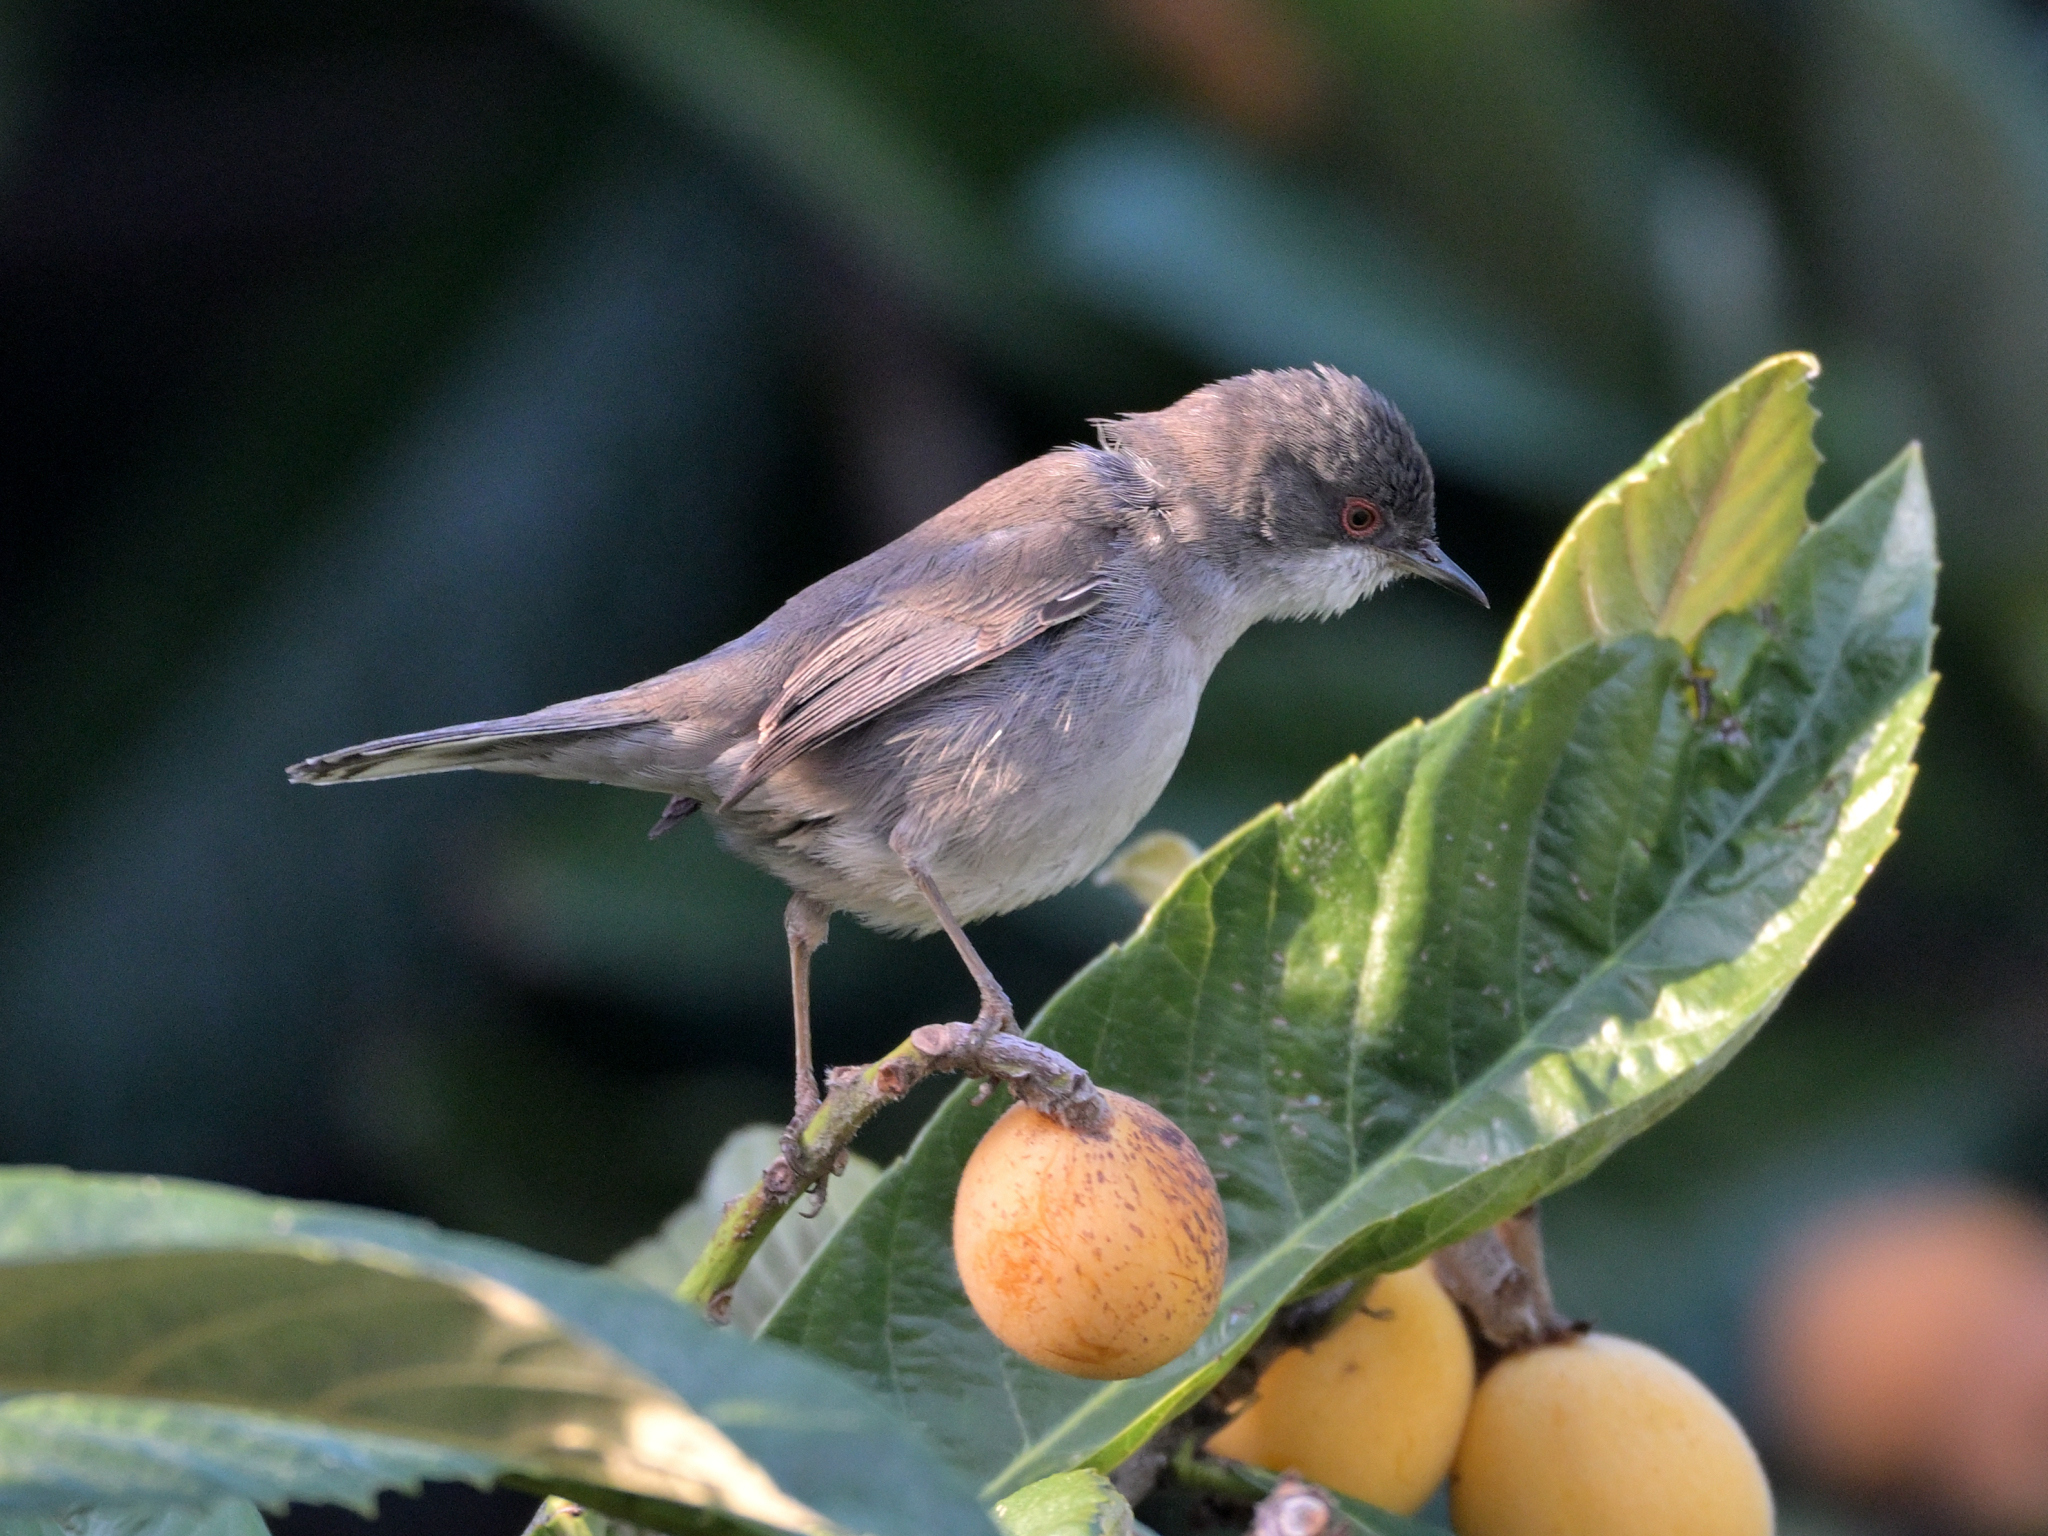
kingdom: Animalia
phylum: Chordata
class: Aves
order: Passeriformes
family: Sylviidae
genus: Curruca
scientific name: Curruca melanocephala
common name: Sardinian warbler
